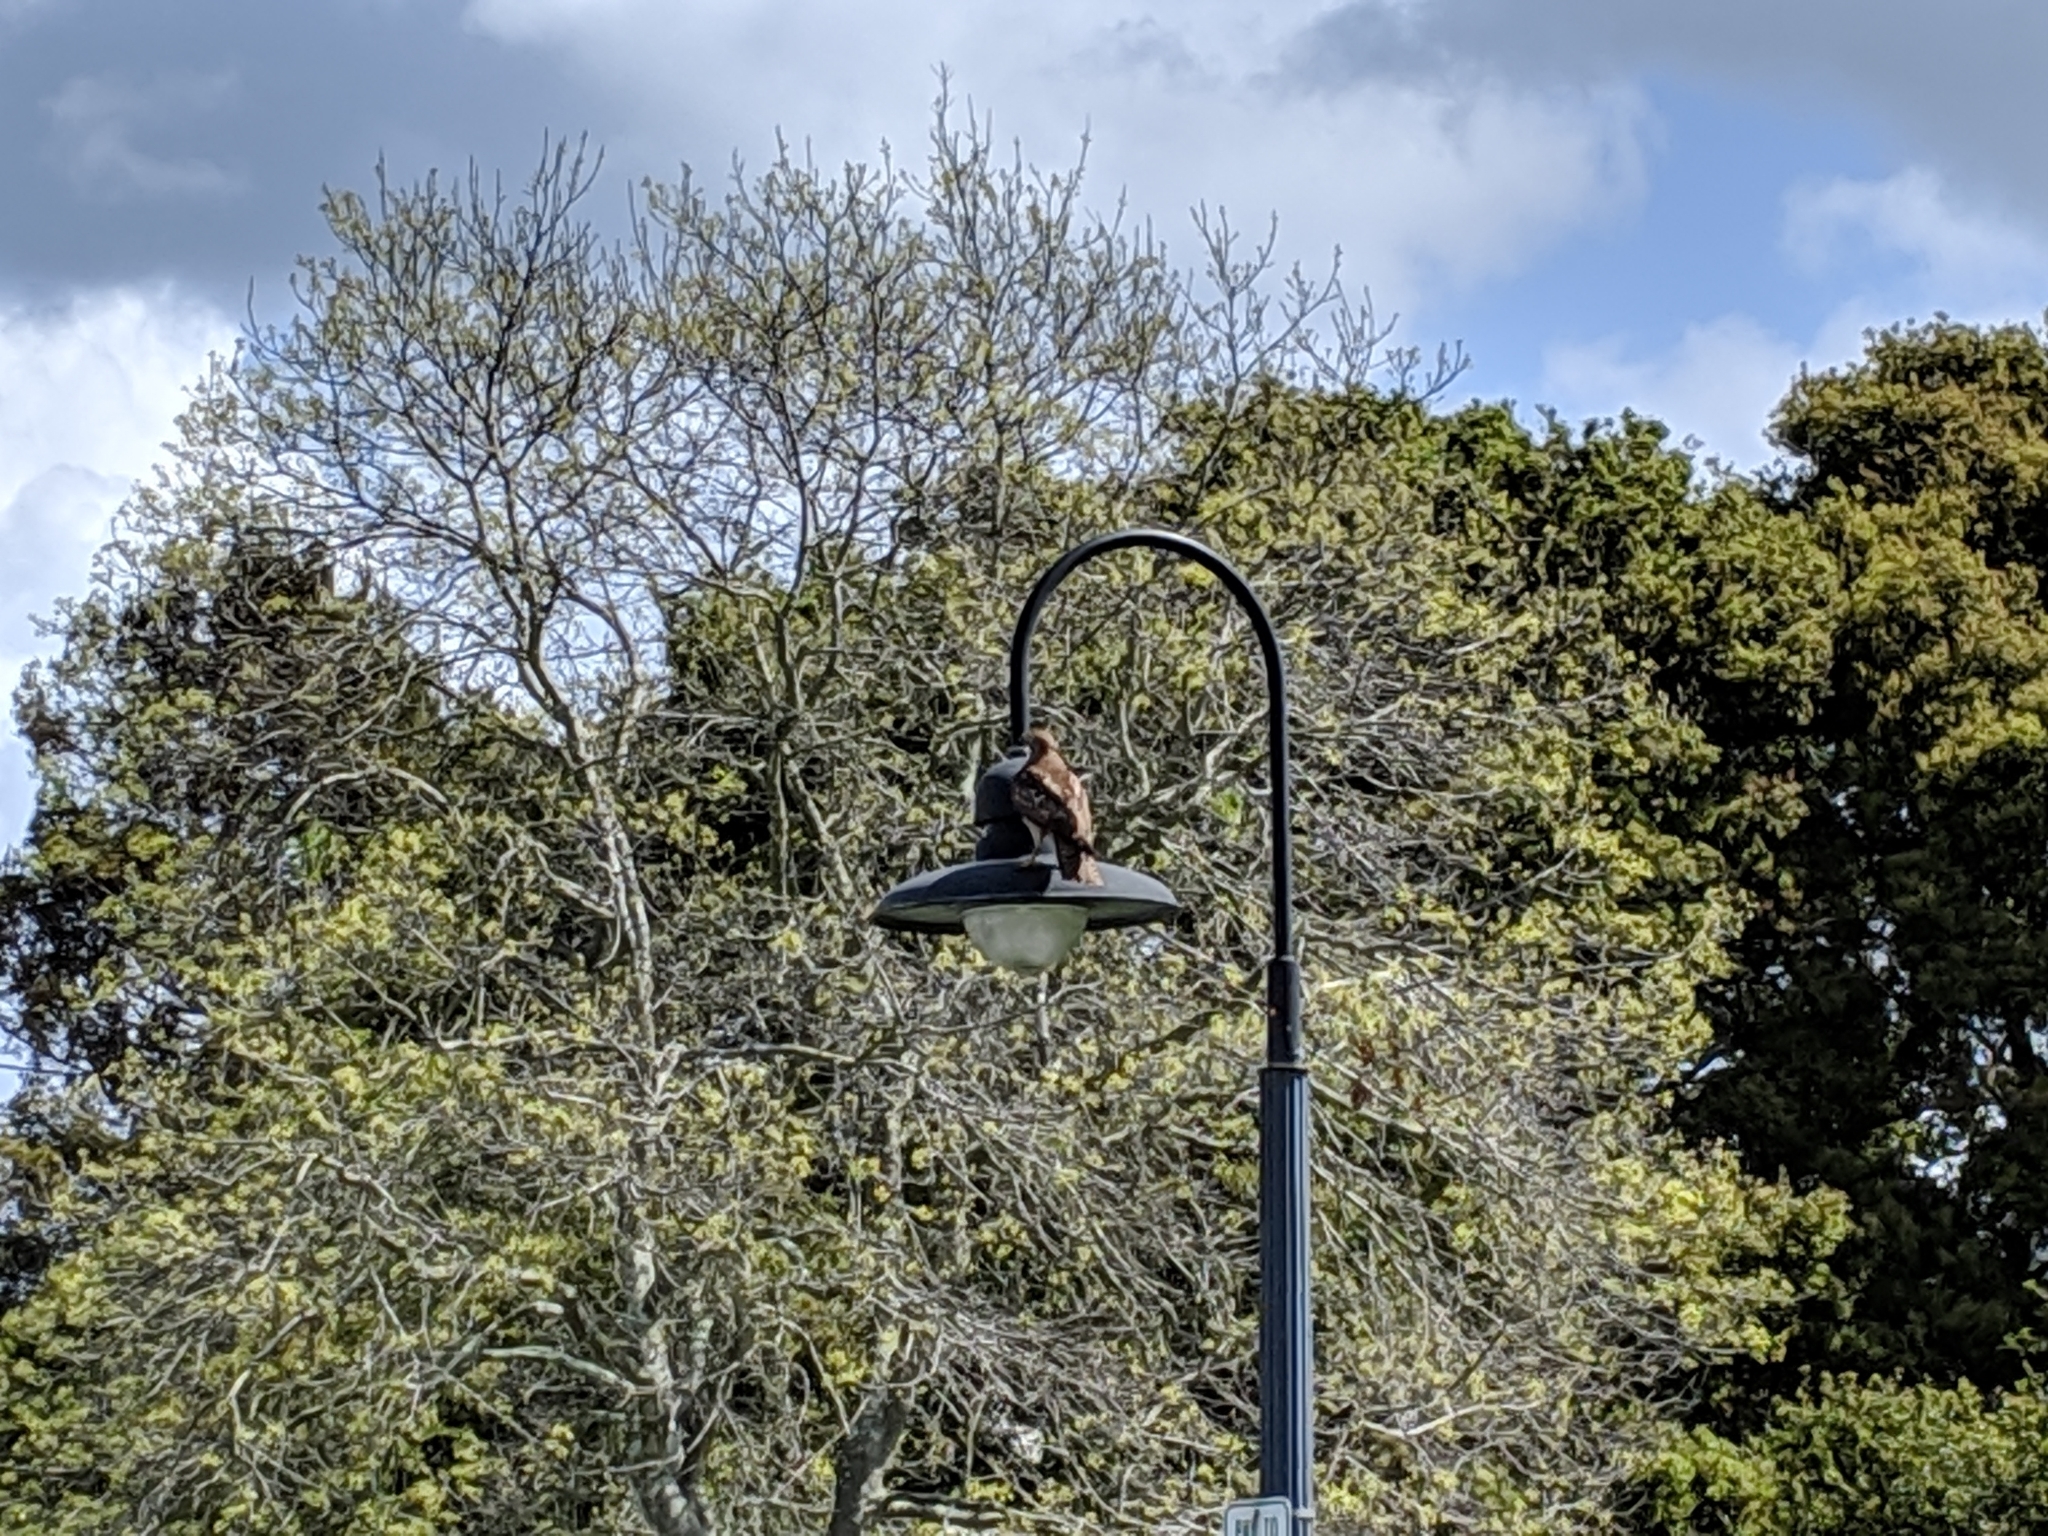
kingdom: Animalia
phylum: Chordata
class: Aves
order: Accipitriformes
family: Accipitridae
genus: Buteo
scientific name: Buteo jamaicensis
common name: Red-tailed hawk
